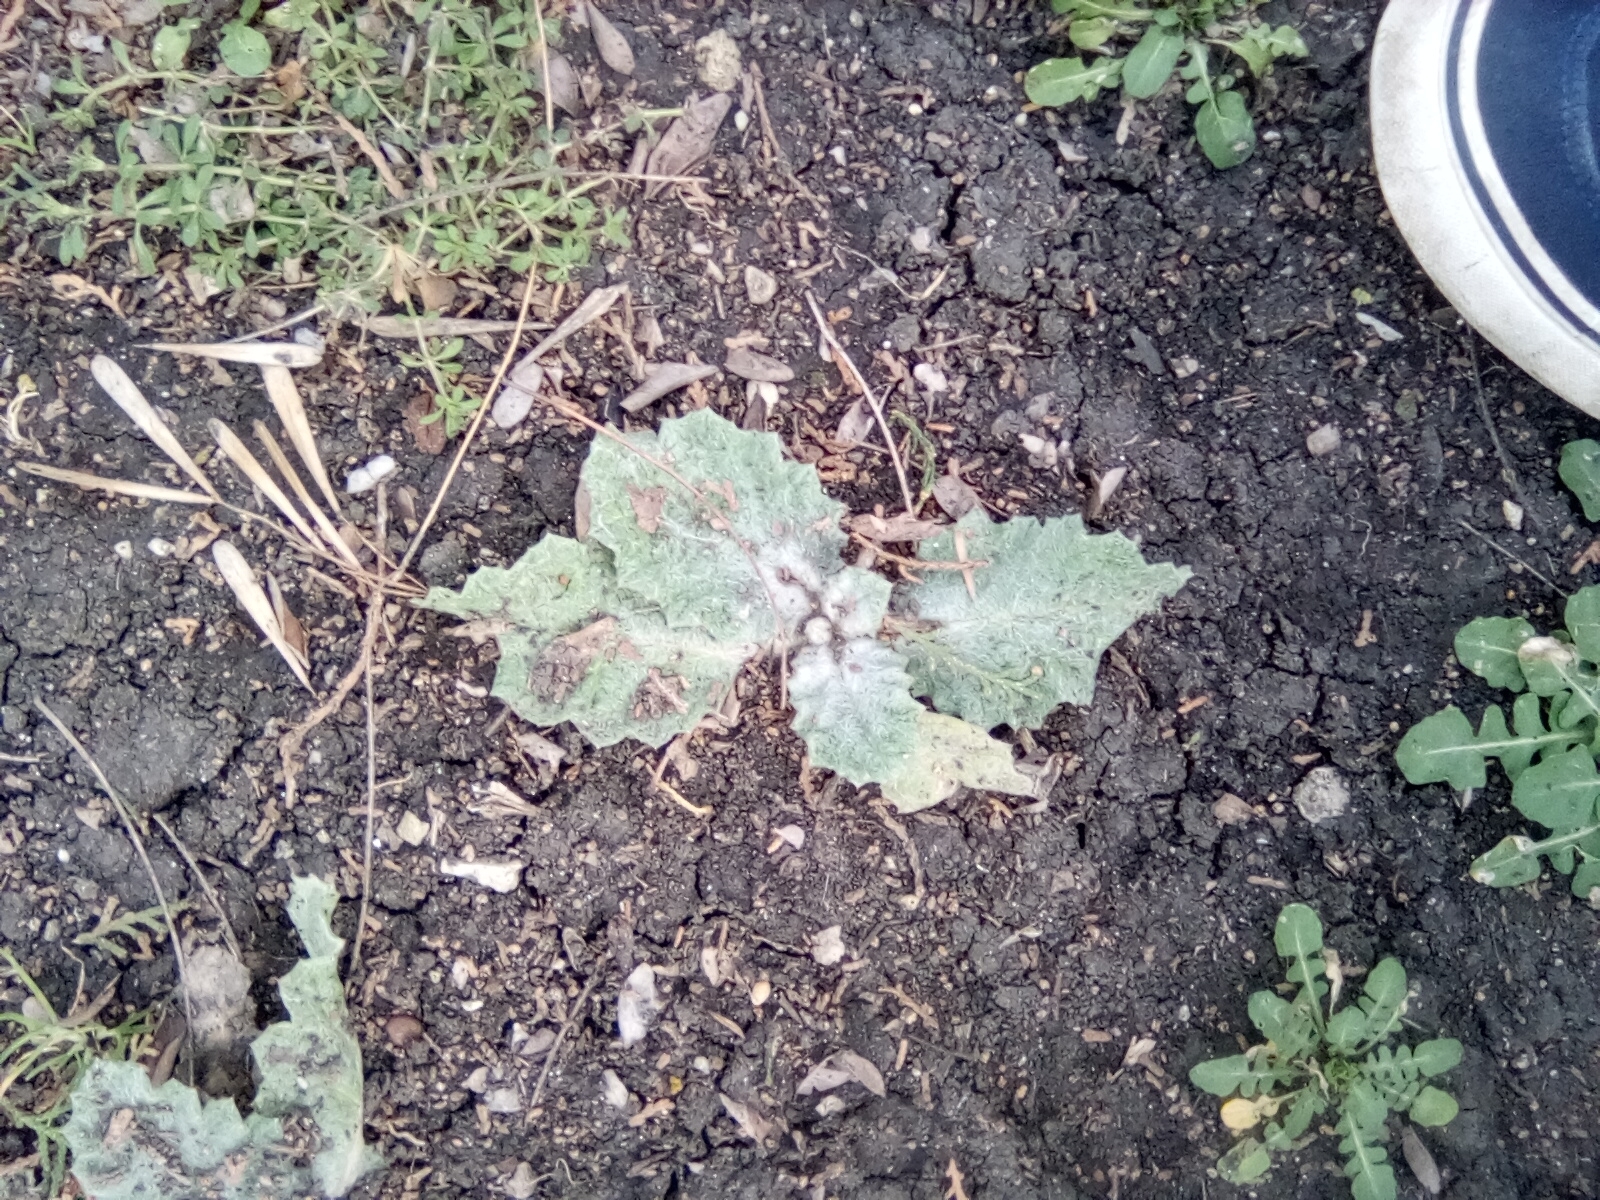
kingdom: Plantae
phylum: Tracheophyta
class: Magnoliopsida
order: Lamiales
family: Lamiaceae
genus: Salvia
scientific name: Salvia aethiopis
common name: Mediterranean sage
